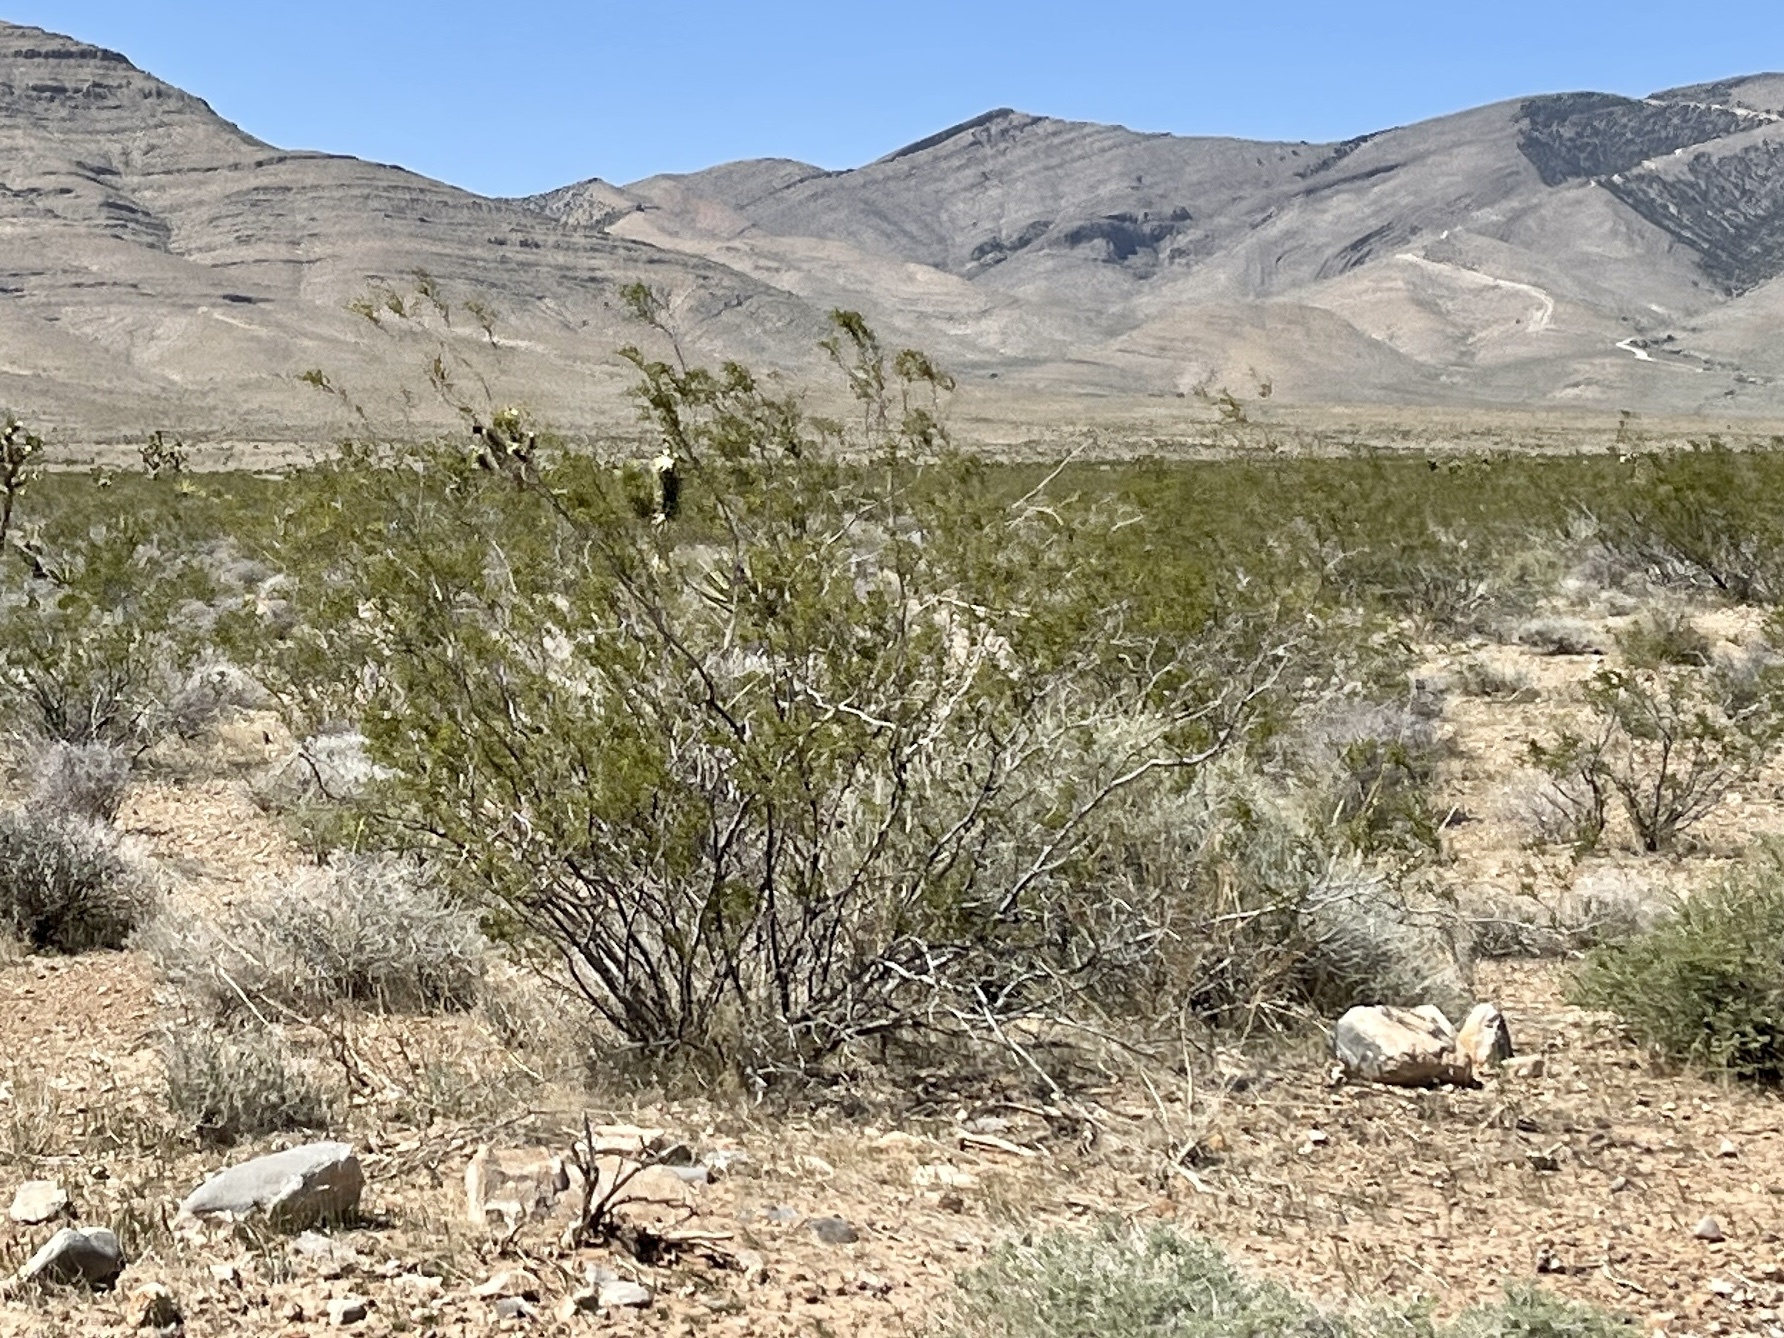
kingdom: Plantae
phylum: Tracheophyta
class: Magnoliopsida
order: Zygophyllales
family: Zygophyllaceae
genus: Larrea
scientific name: Larrea tridentata
